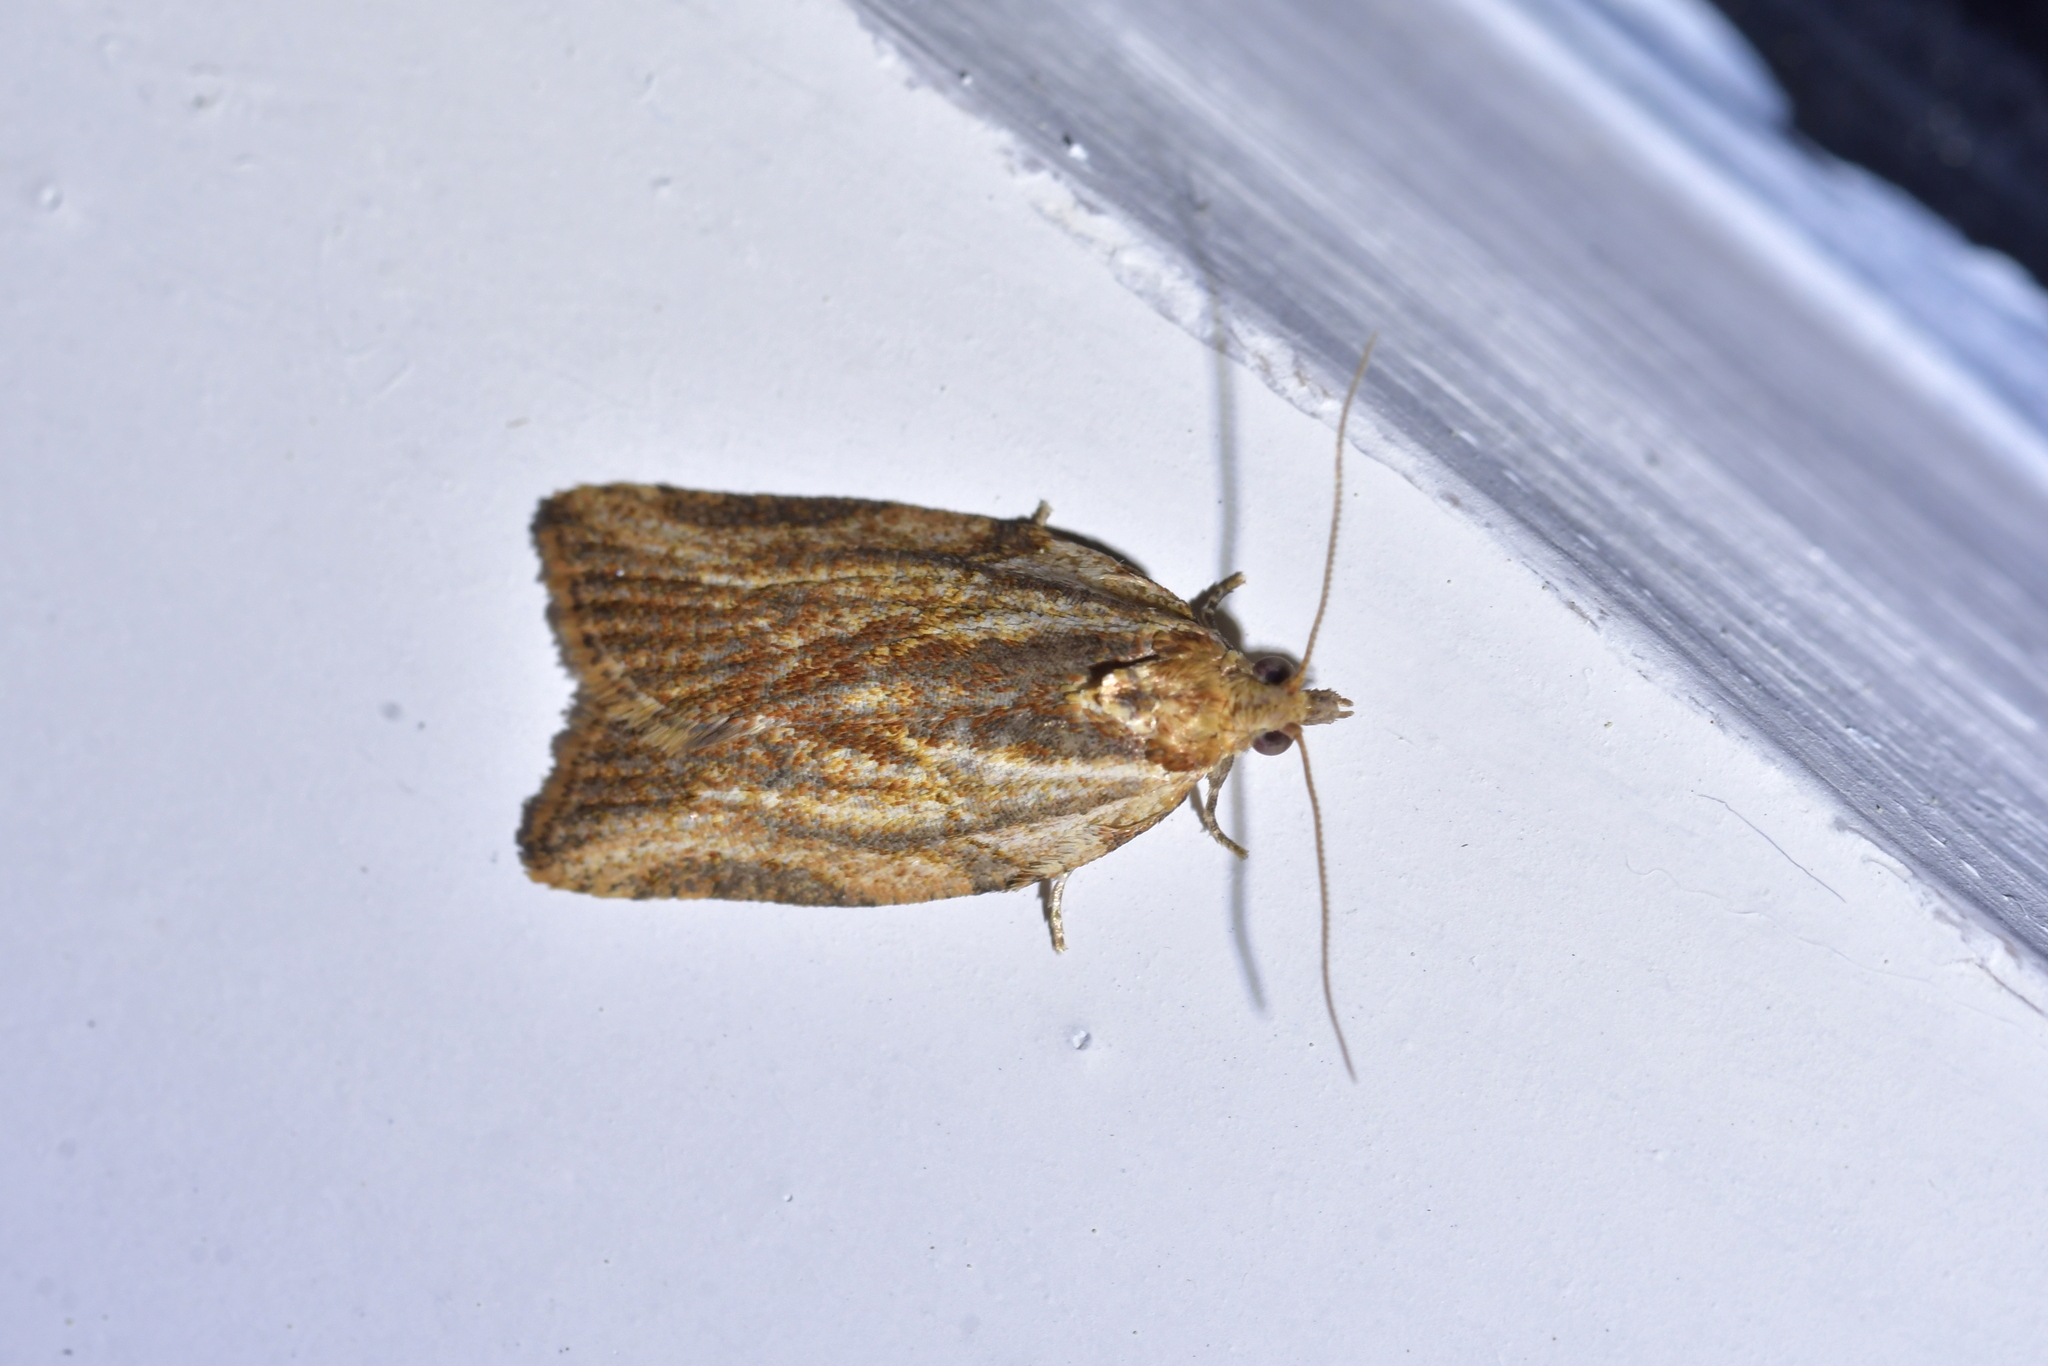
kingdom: Animalia
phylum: Arthropoda
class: Insecta
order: Lepidoptera
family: Tortricidae
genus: Epiphyas
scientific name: Epiphyas postvittana
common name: Light brown apple moth
